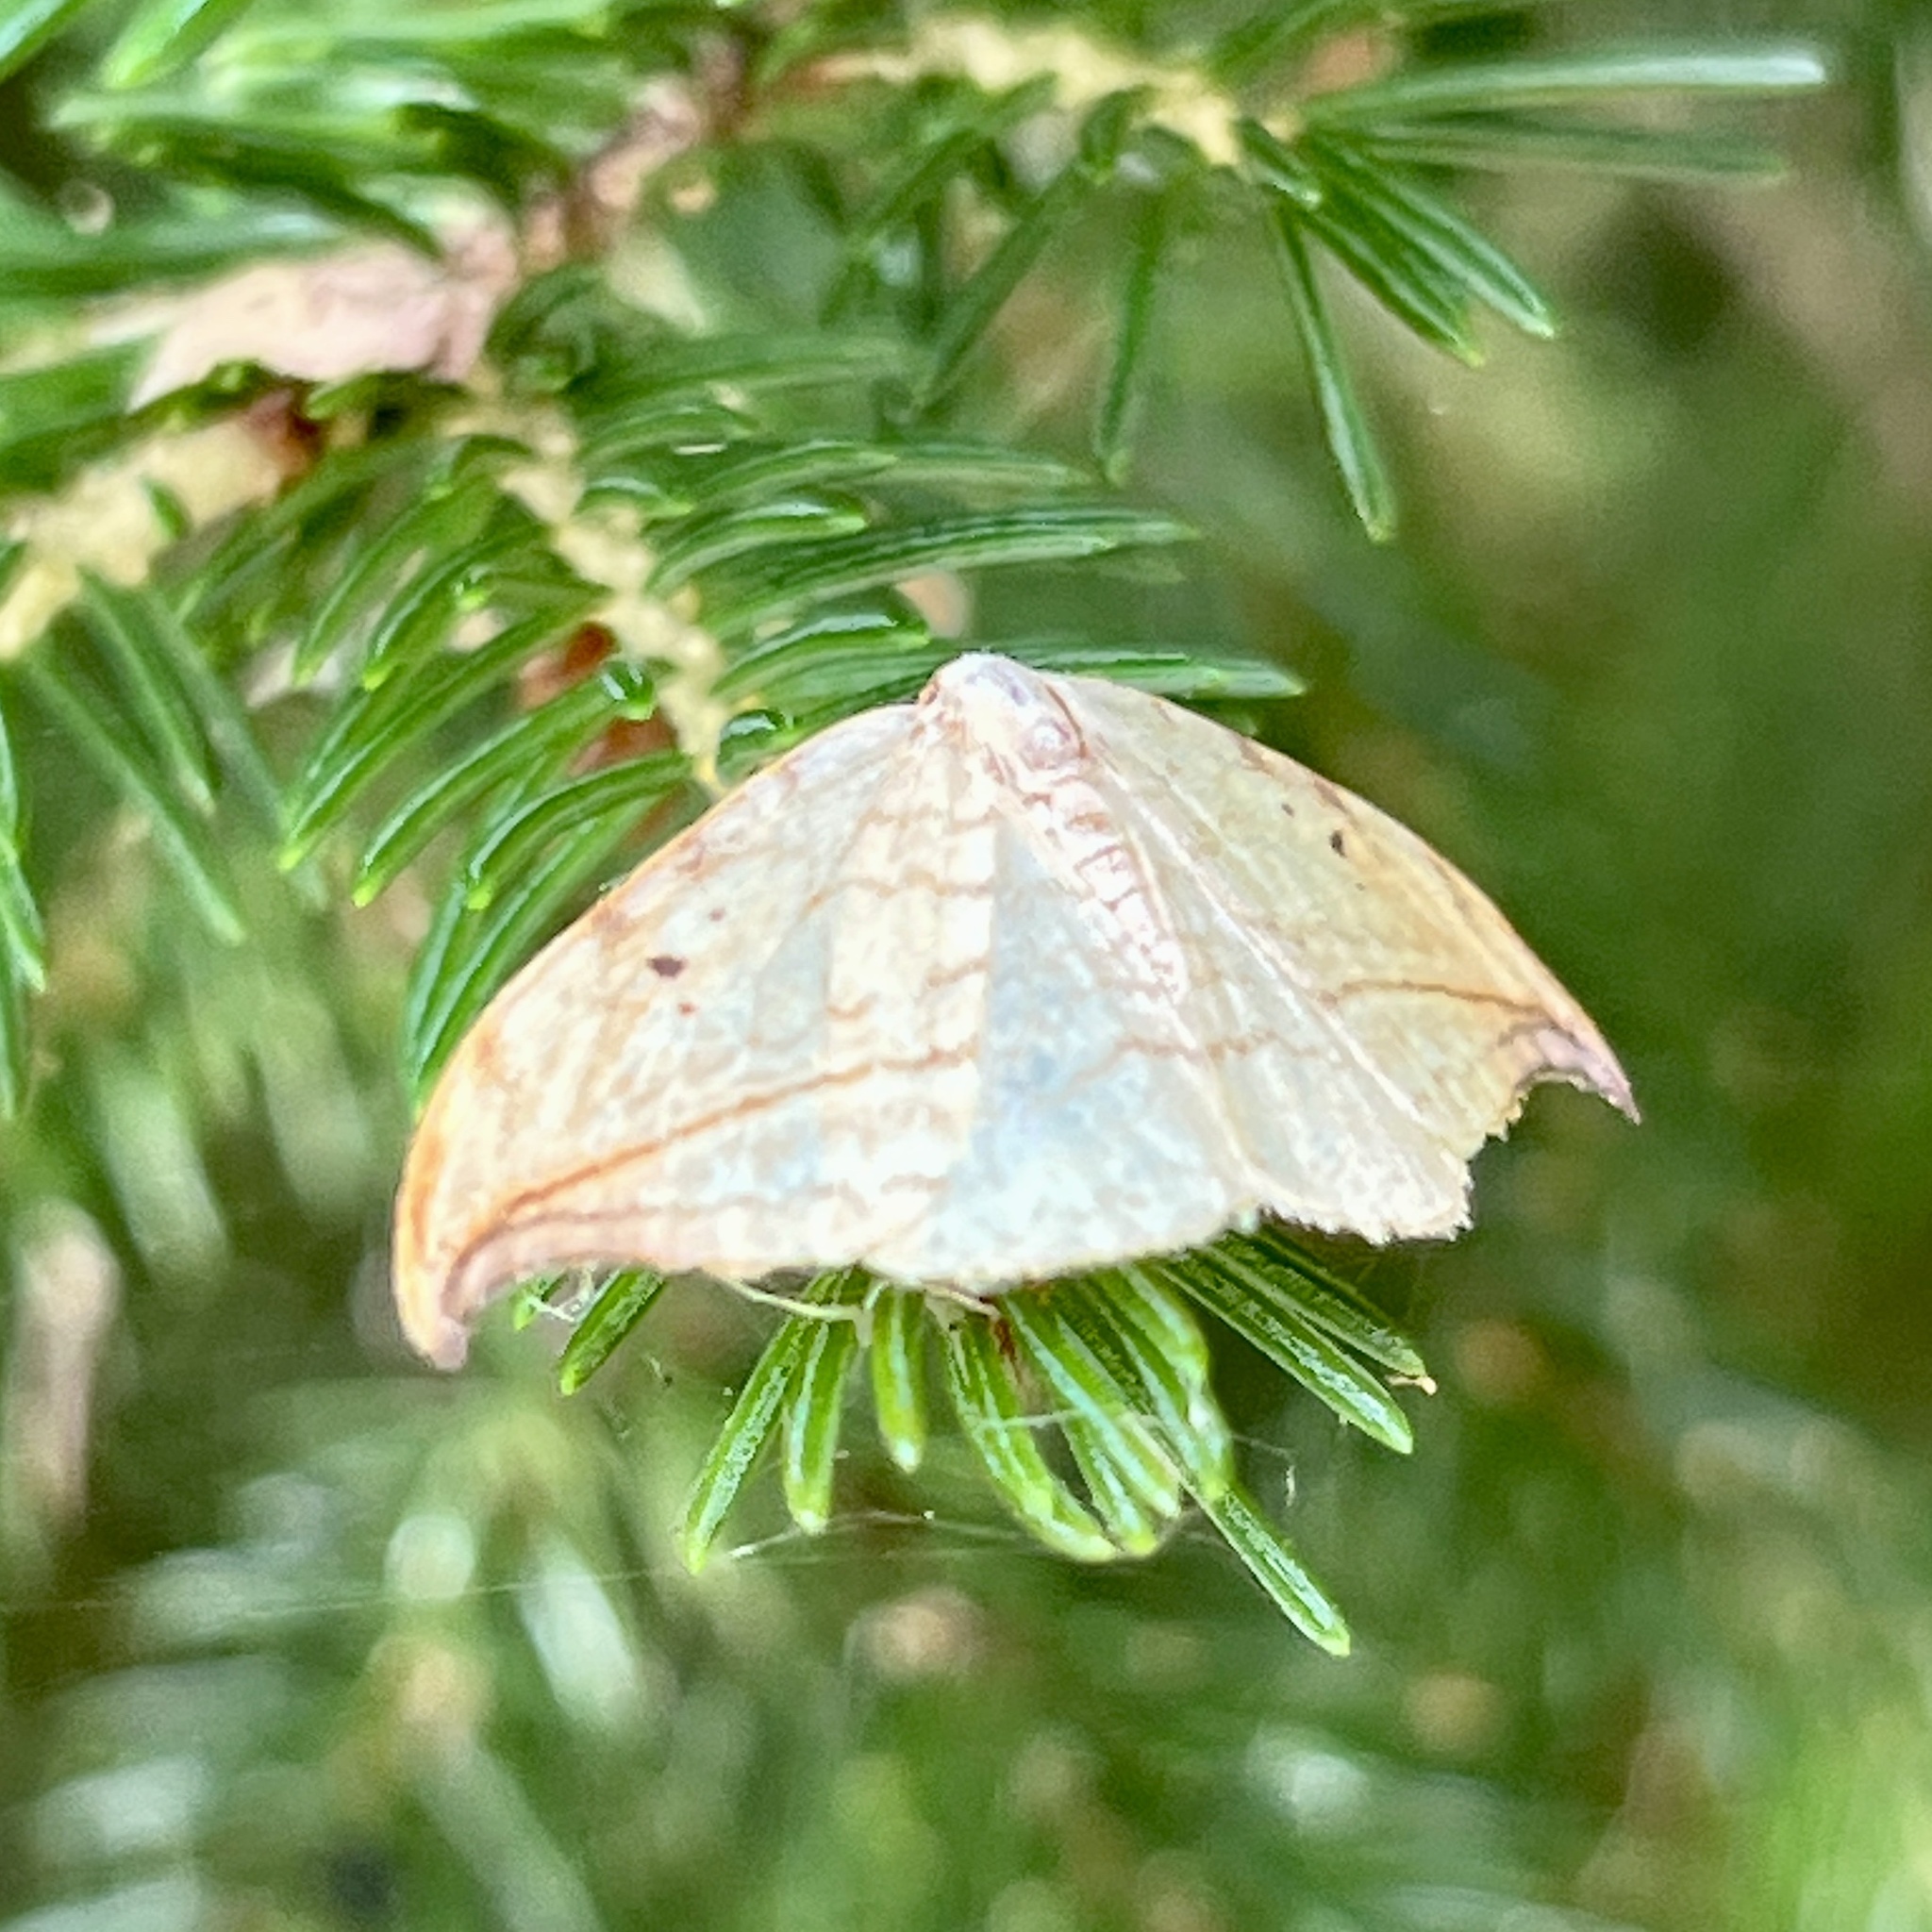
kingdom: Animalia
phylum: Arthropoda
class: Insecta
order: Lepidoptera
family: Drepanidae
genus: Drepana
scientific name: Drepana arcuata
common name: Arched hooktip moth
